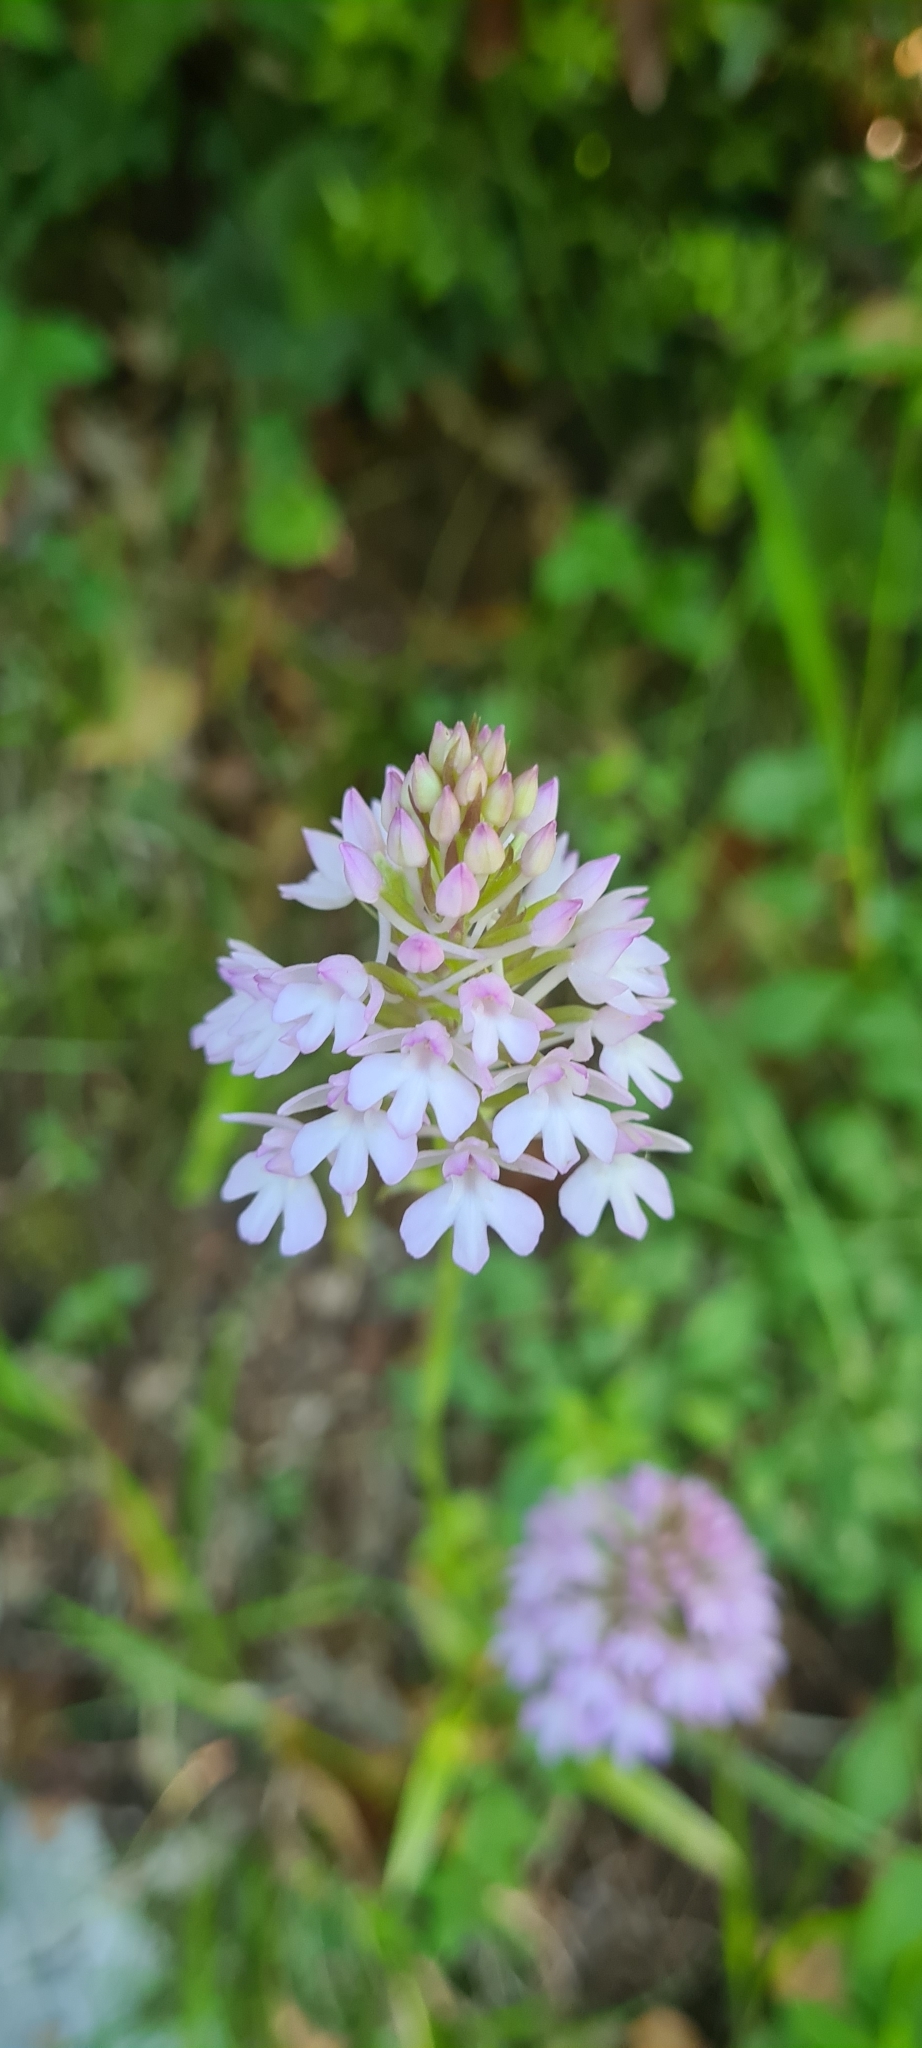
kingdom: Plantae
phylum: Tracheophyta
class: Liliopsida
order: Asparagales
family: Orchidaceae
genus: Anacamptis
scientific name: Anacamptis pyramidalis
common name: Pyramidal orchid
